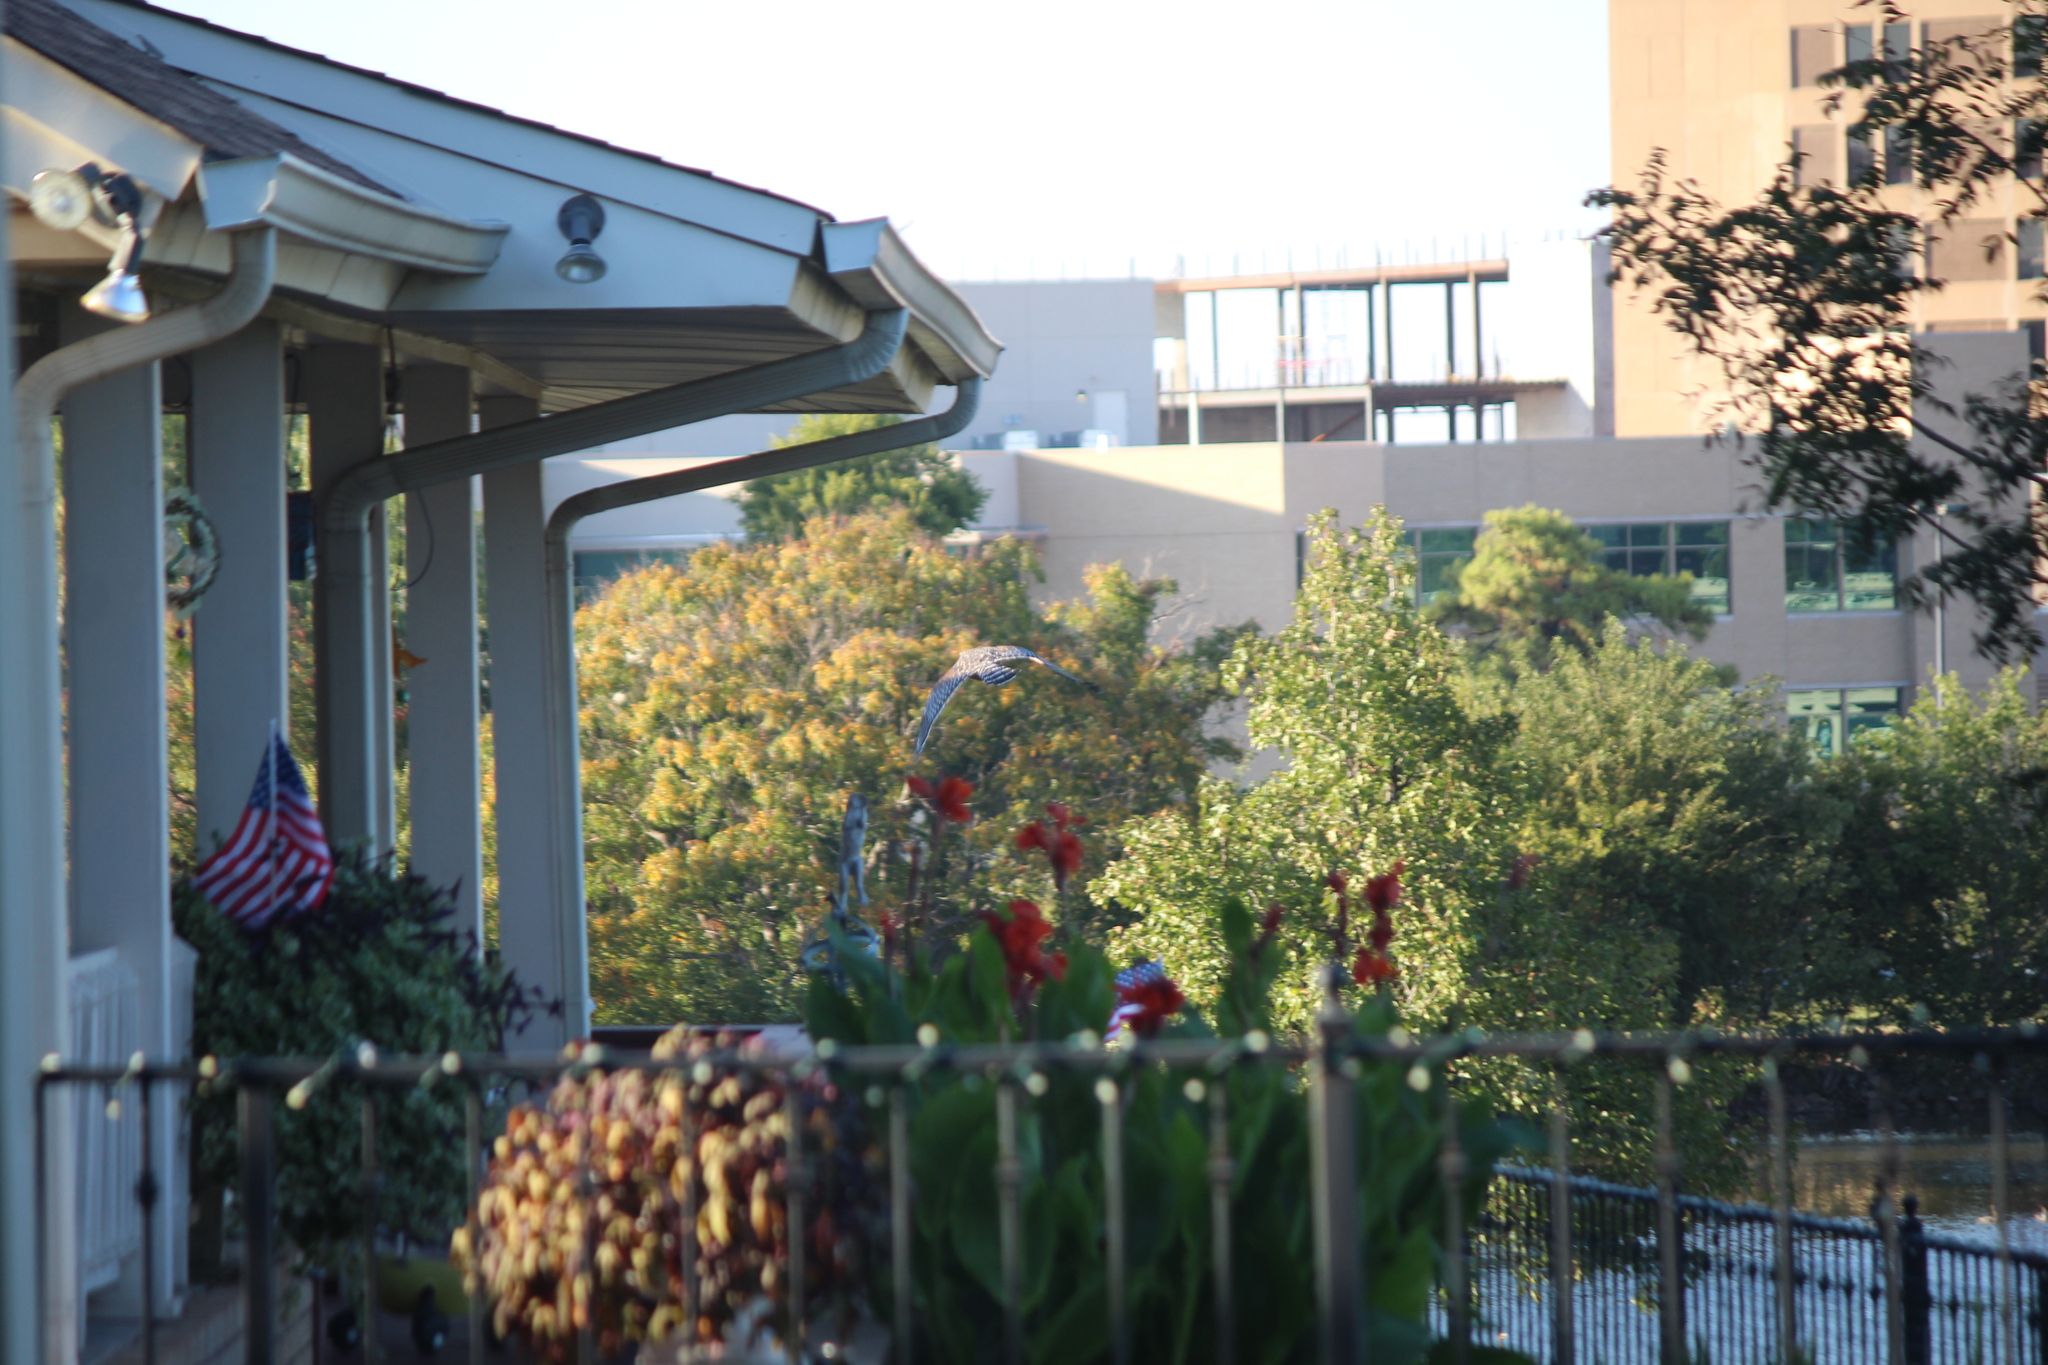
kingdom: Animalia
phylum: Chordata
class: Aves
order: Accipitriformes
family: Accipitridae
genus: Buteo
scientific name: Buteo lineatus
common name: Red-shouldered hawk
